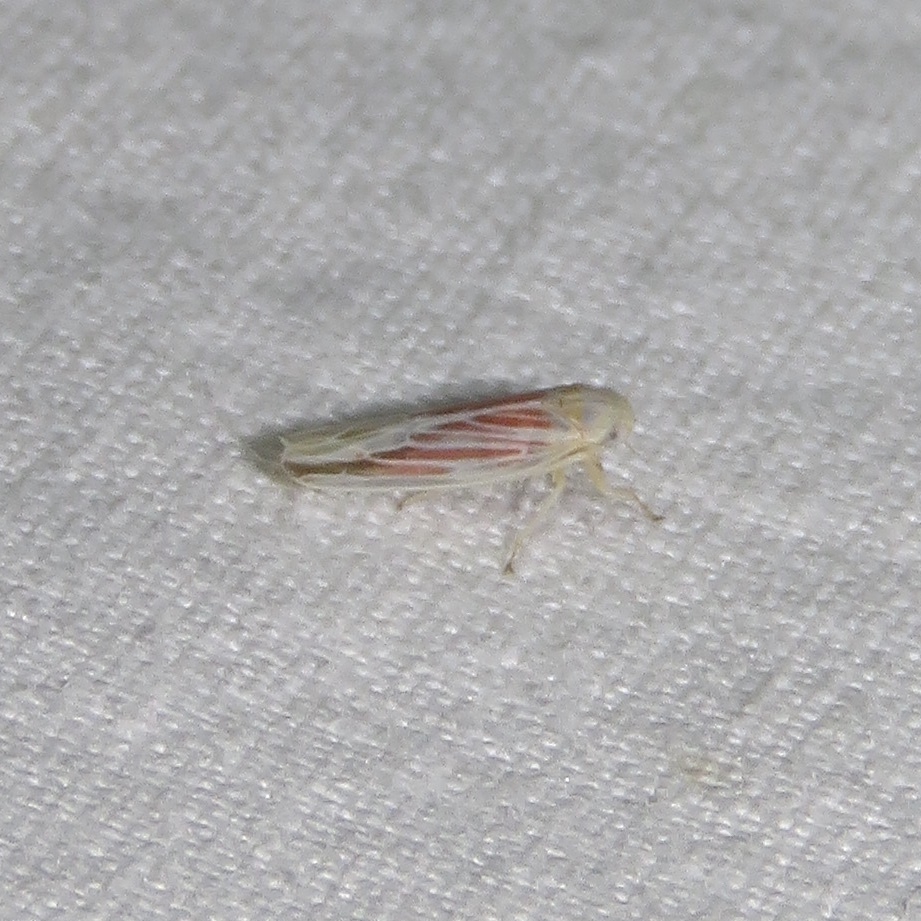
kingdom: Animalia
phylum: Arthropoda
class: Insecta
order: Hemiptera
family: Cicadellidae
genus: Balclutha
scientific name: Balclutha rubrostriata
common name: Red-streaked leafhopper
